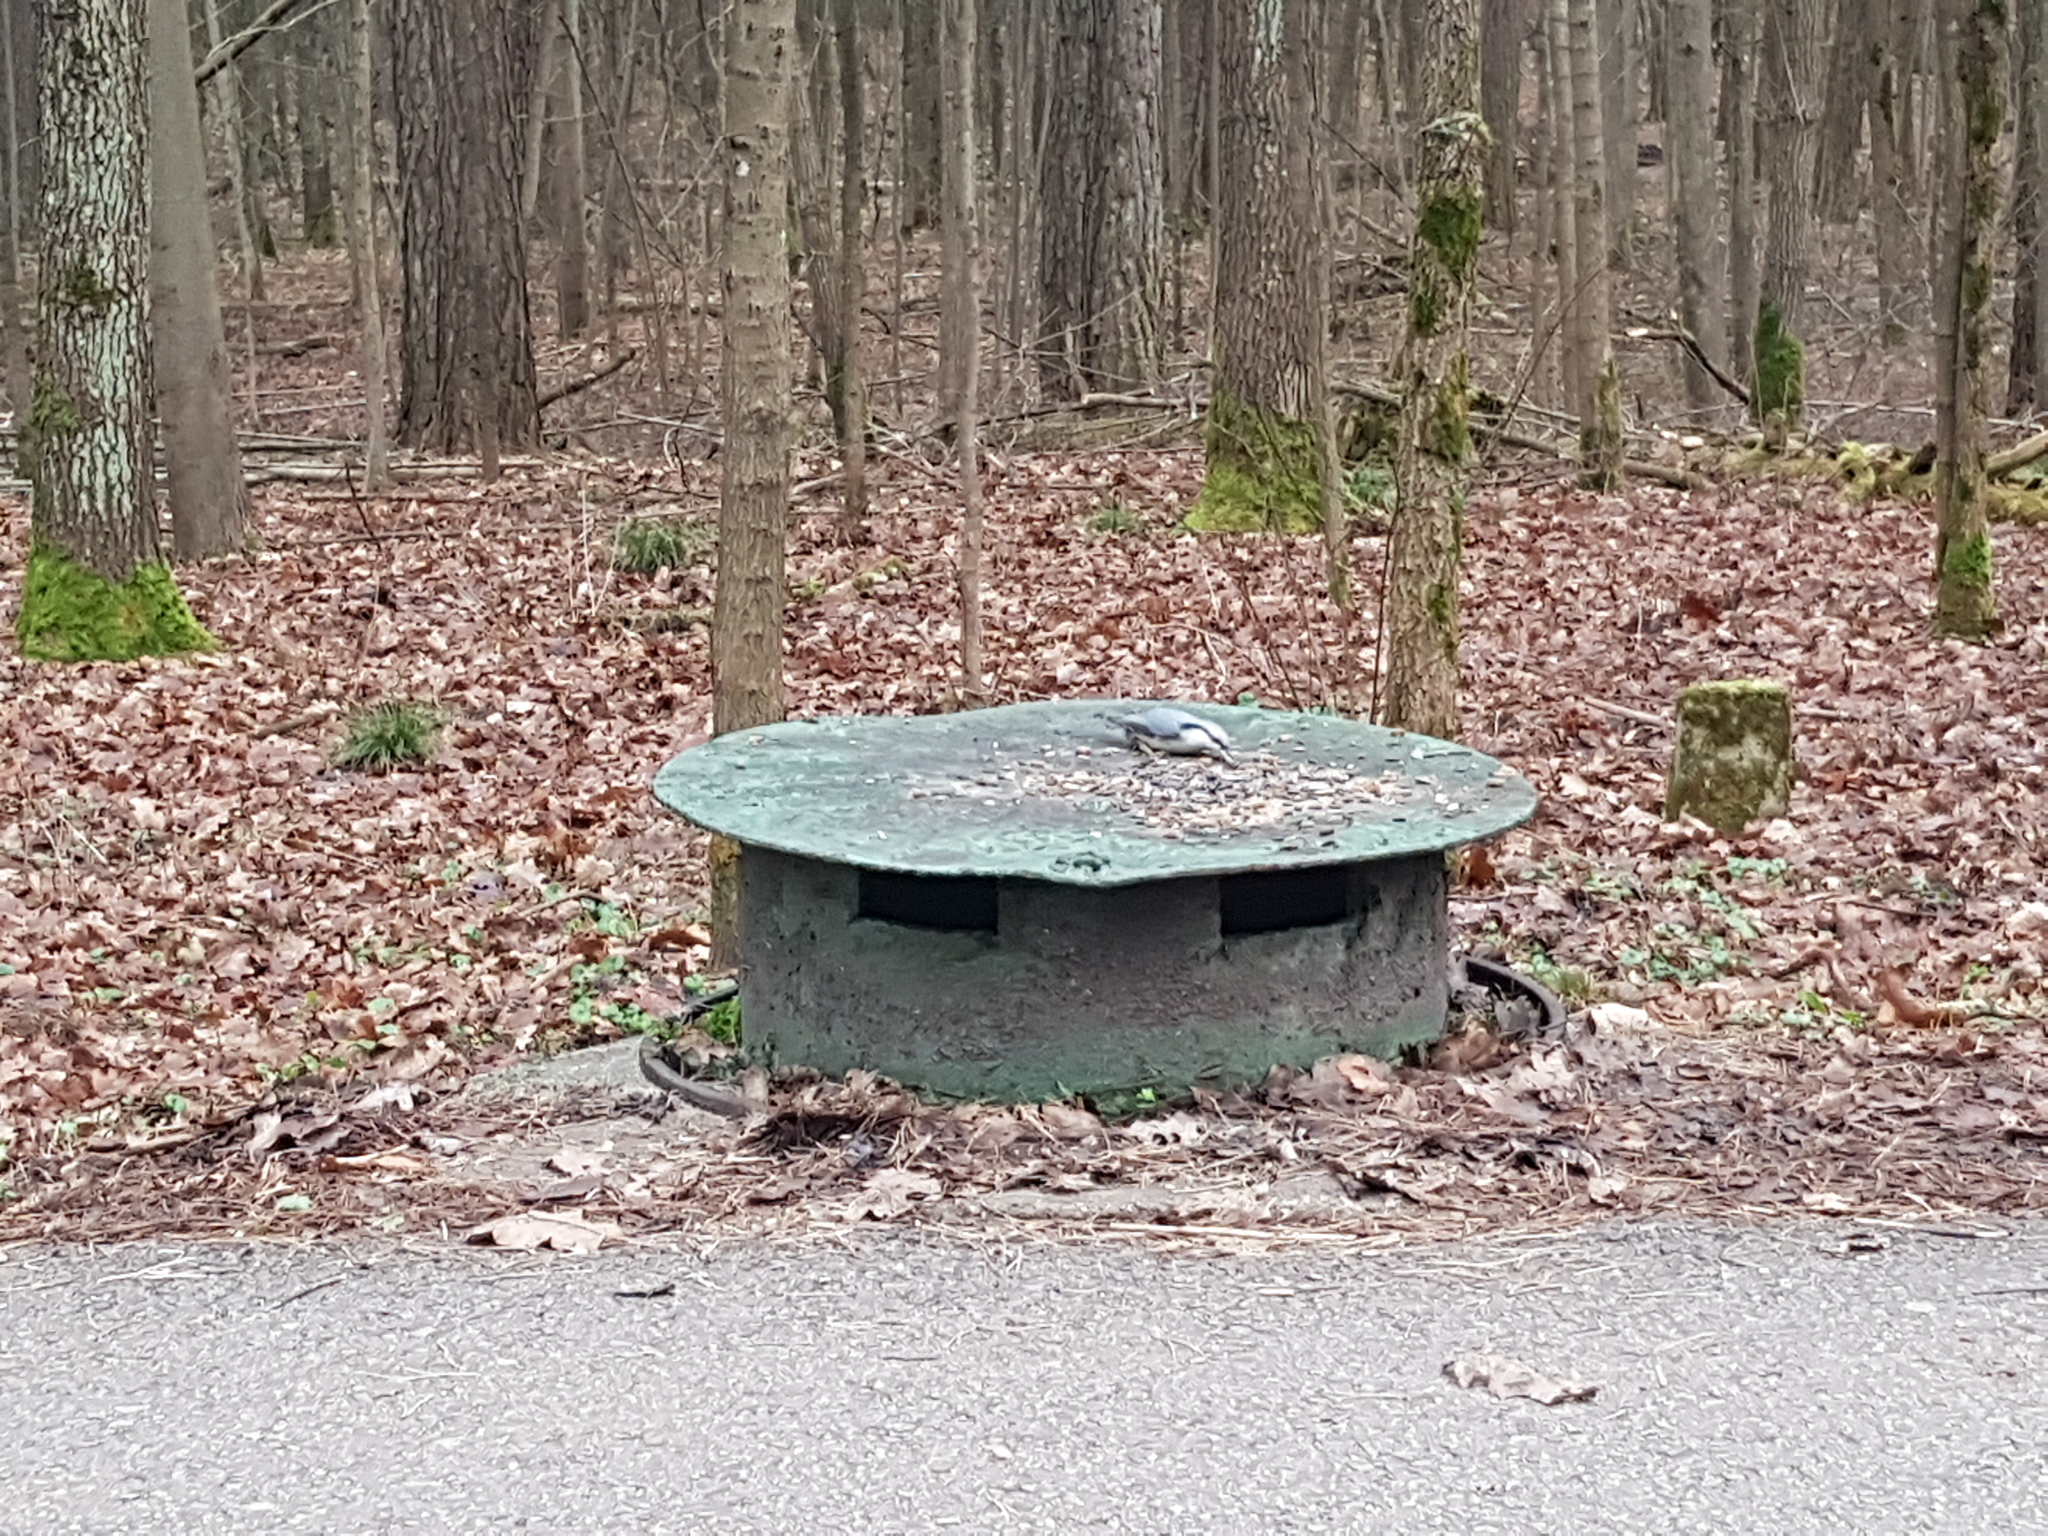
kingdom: Animalia
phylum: Chordata
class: Aves
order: Passeriformes
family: Sittidae
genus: Sitta
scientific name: Sitta europaea
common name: Eurasian nuthatch
